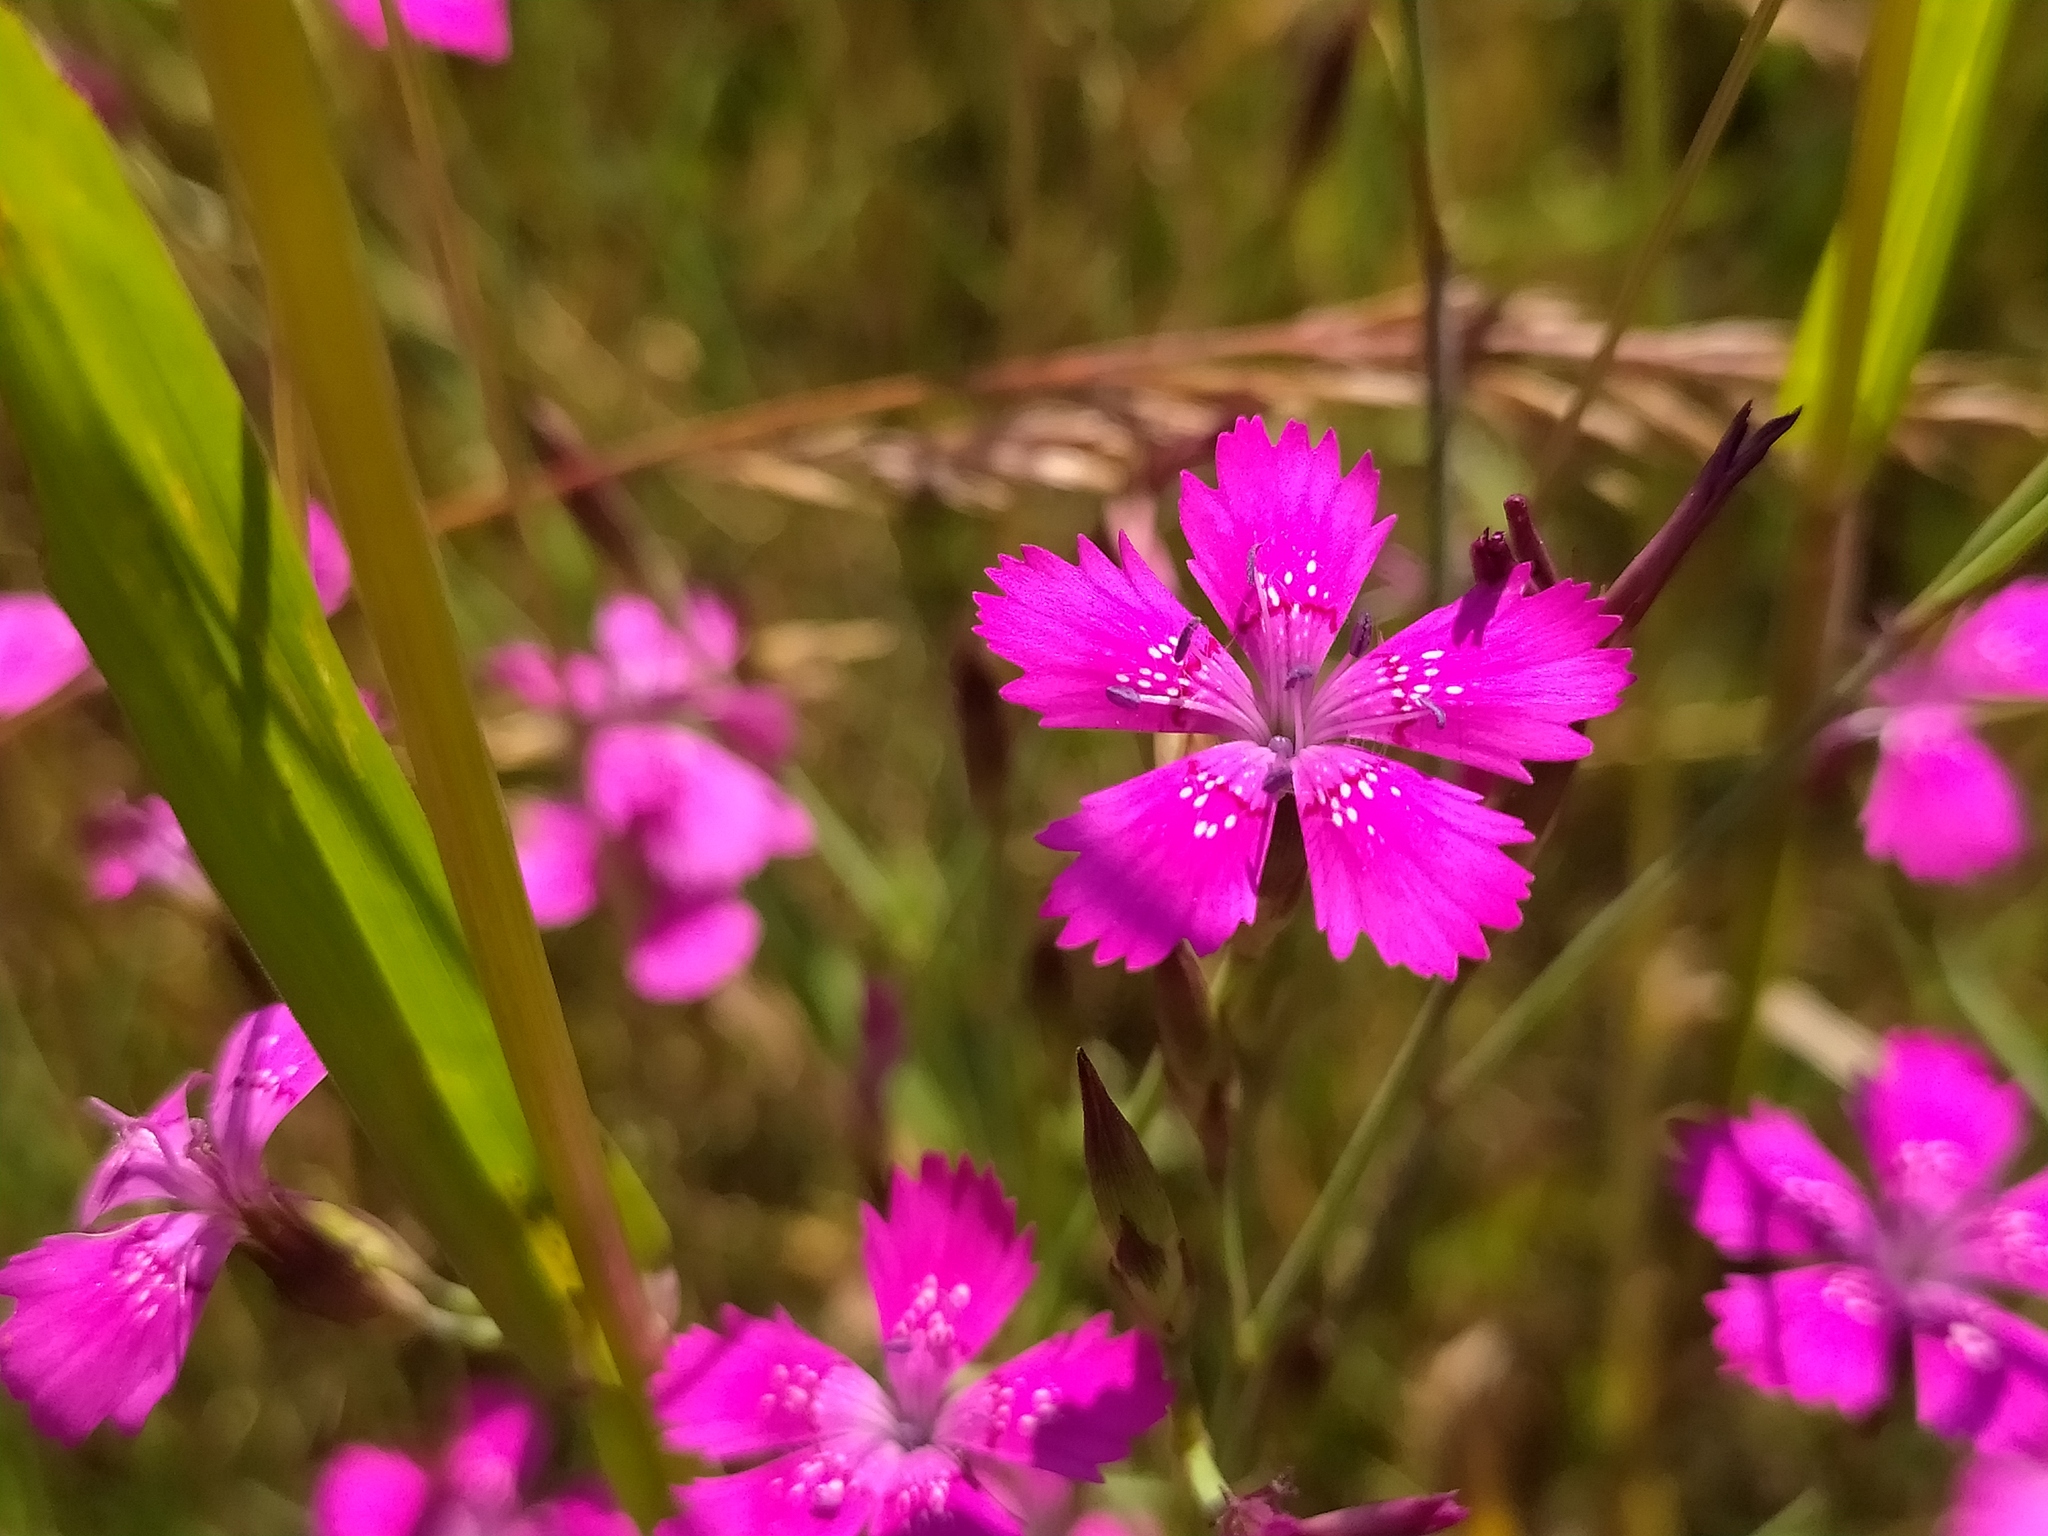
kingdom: Plantae
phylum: Tracheophyta
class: Magnoliopsida
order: Caryophyllales
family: Caryophyllaceae
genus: Dianthus
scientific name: Dianthus deltoides
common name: Maiden pink
